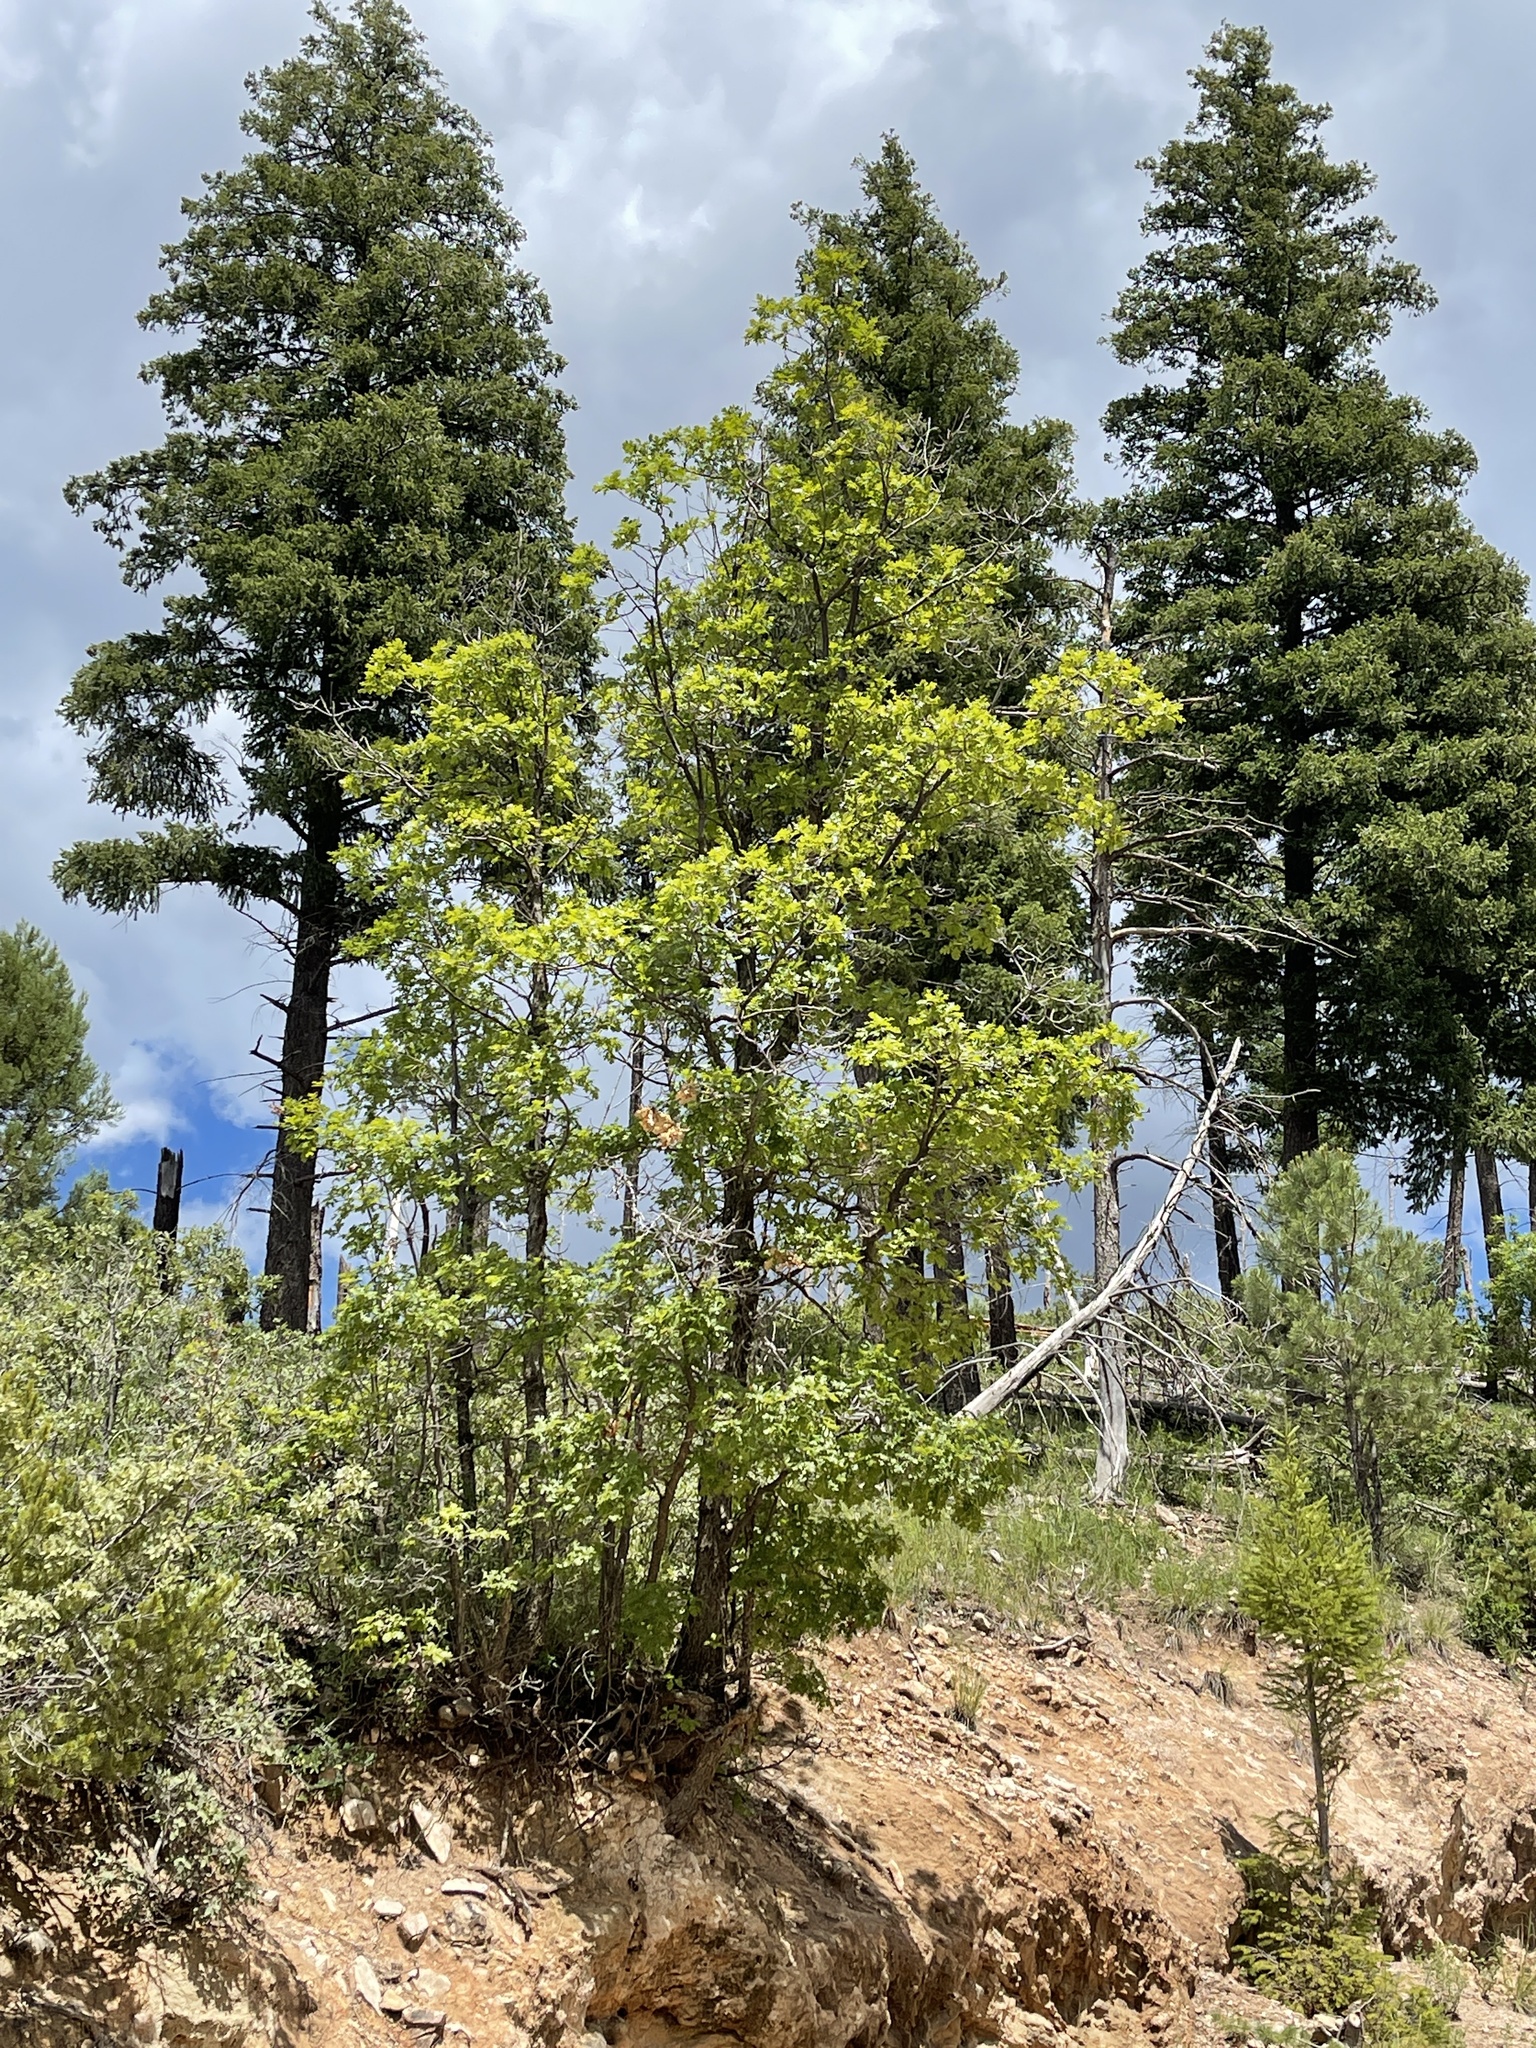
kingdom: Plantae
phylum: Tracheophyta
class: Magnoliopsida
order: Fagales
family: Fagaceae
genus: Quercus
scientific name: Quercus gambelii
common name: Gambel oak
